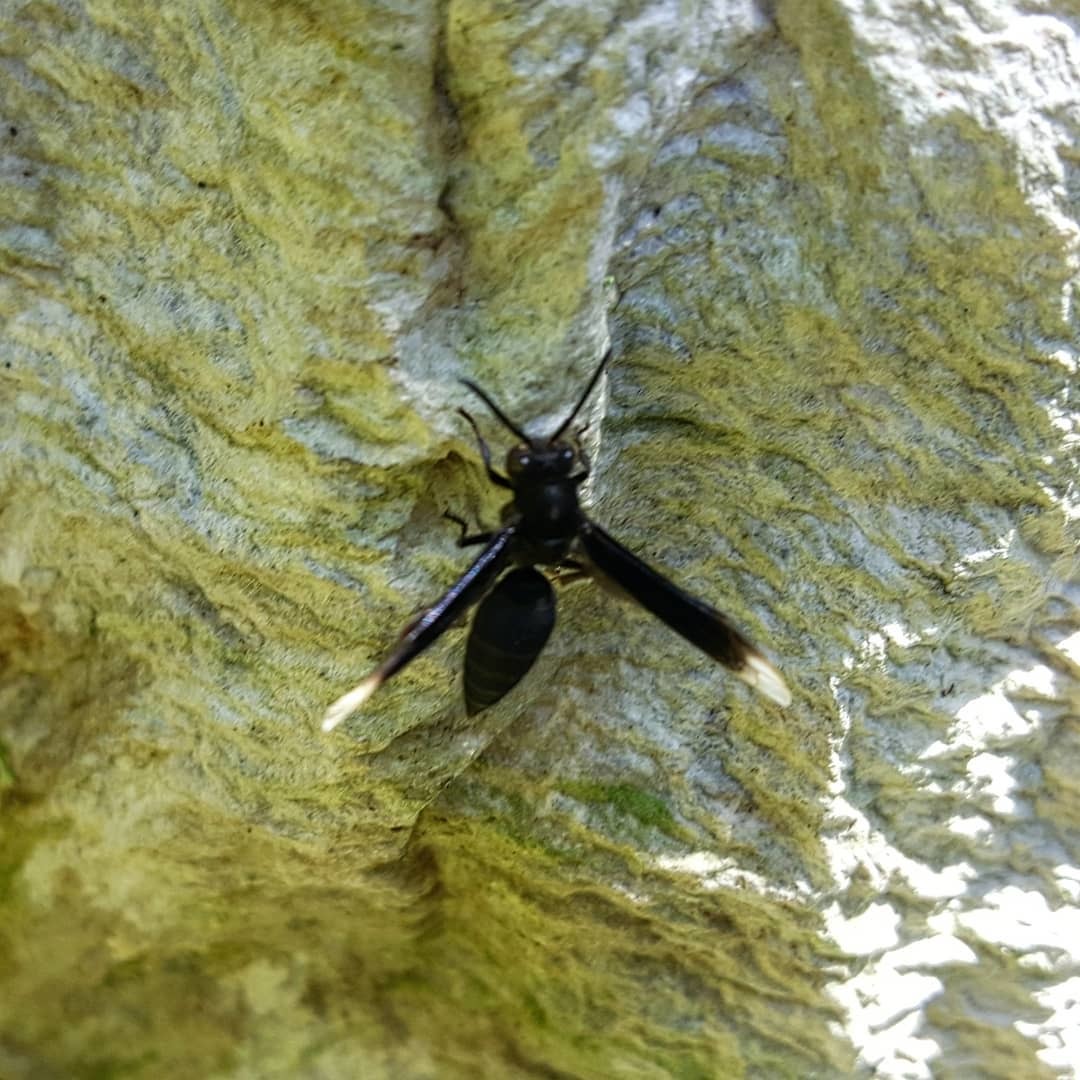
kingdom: Animalia
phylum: Arthropoda
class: Insecta
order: Hymenoptera
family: Vespidae
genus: Parachartergus
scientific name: Parachartergus apicalis
